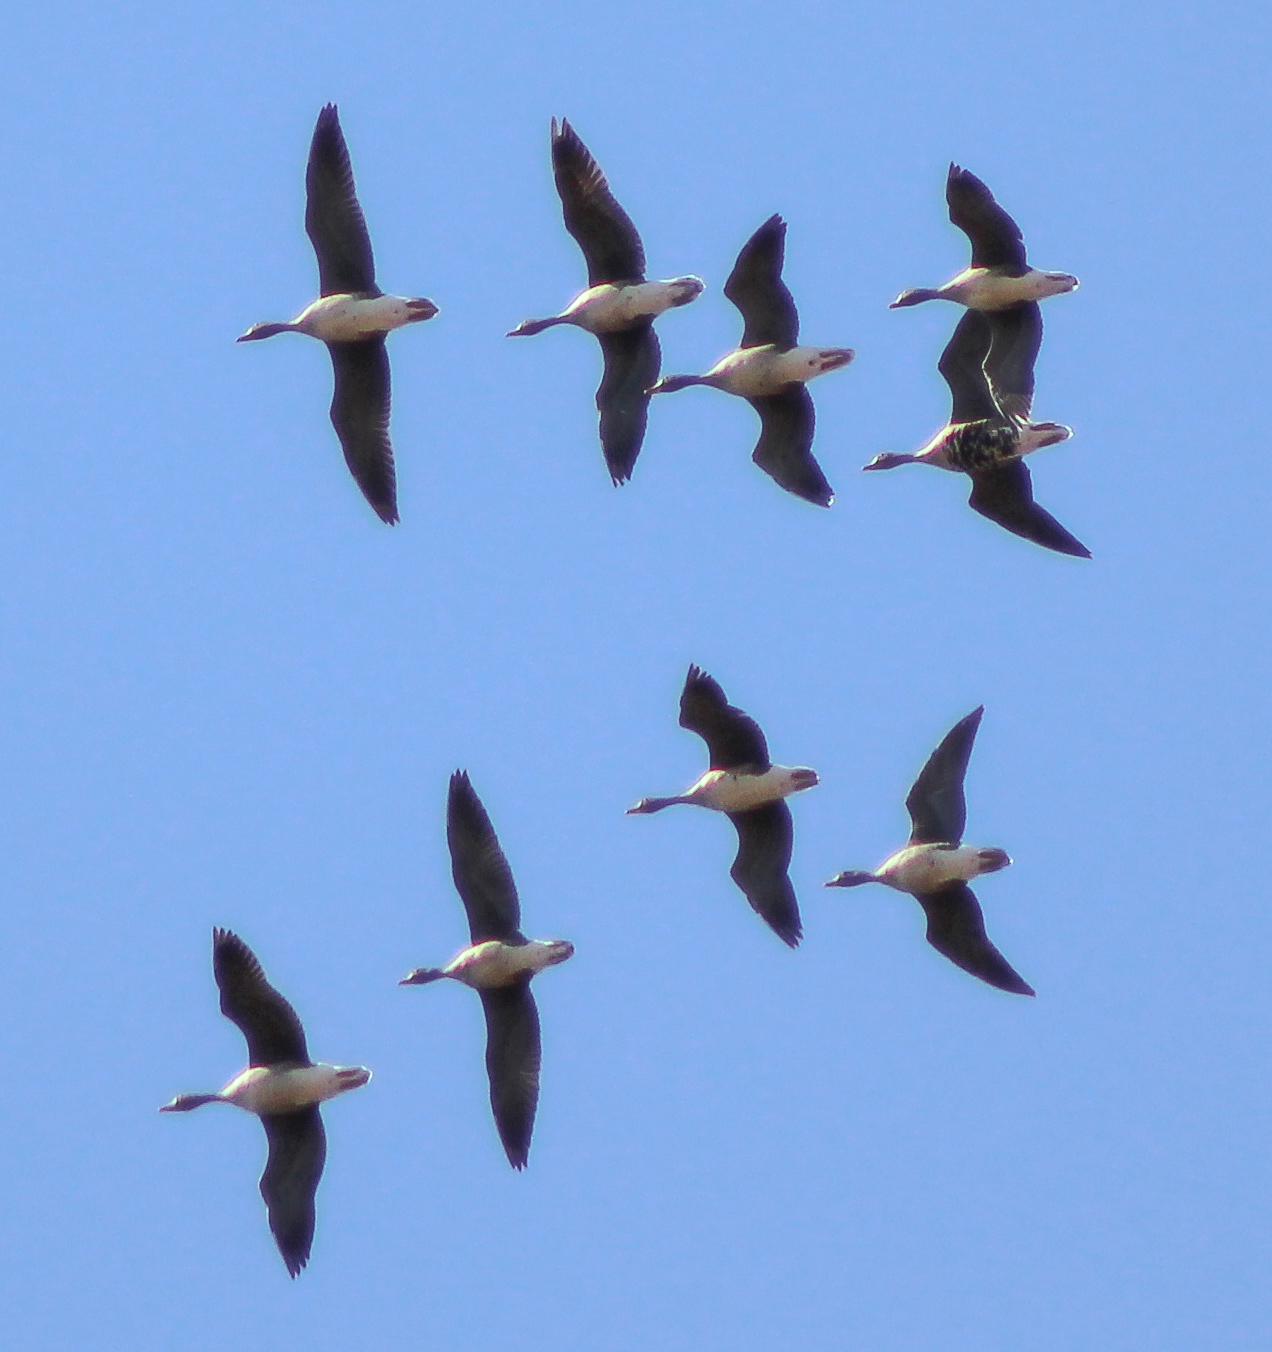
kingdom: Animalia
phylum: Chordata
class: Aves
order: Anseriformes
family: Anatidae
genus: Anser
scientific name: Anser albifrons
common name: Greater white-fronted goose
